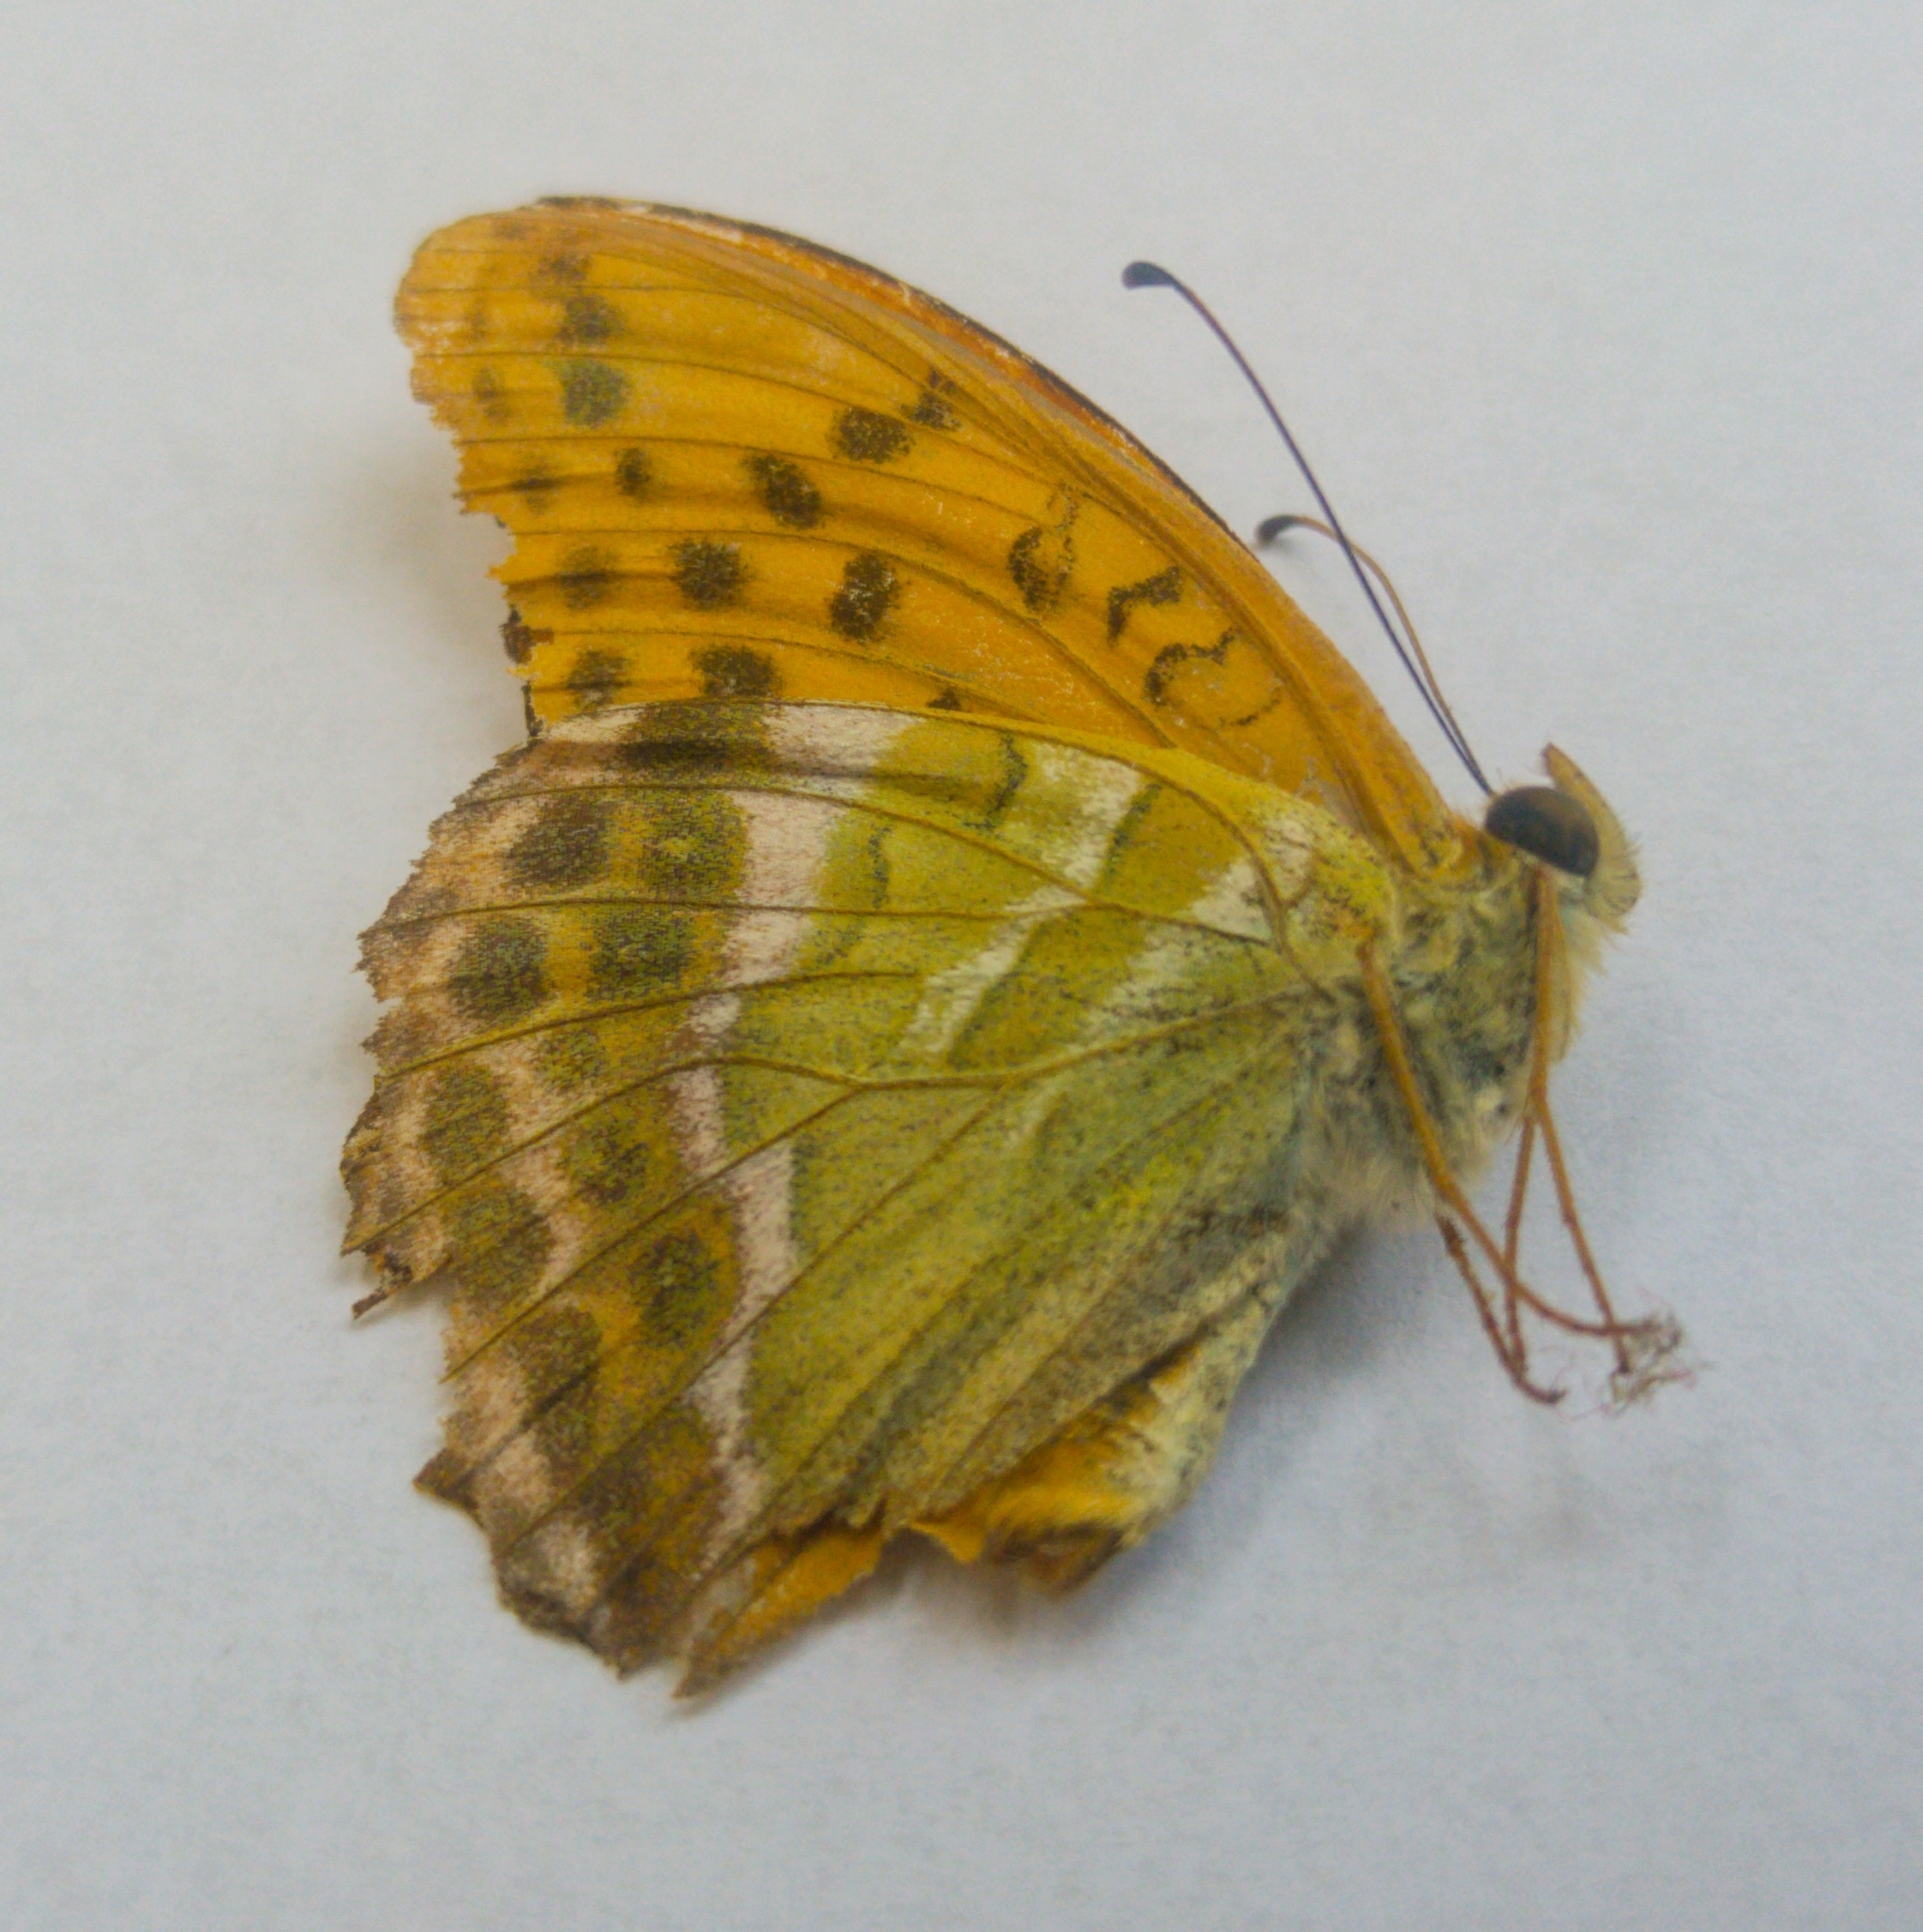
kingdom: Animalia
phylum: Arthropoda
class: Insecta
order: Lepidoptera
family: Nymphalidae
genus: Argynnis
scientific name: Argynnis paphia
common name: Silver-washed fritillary
